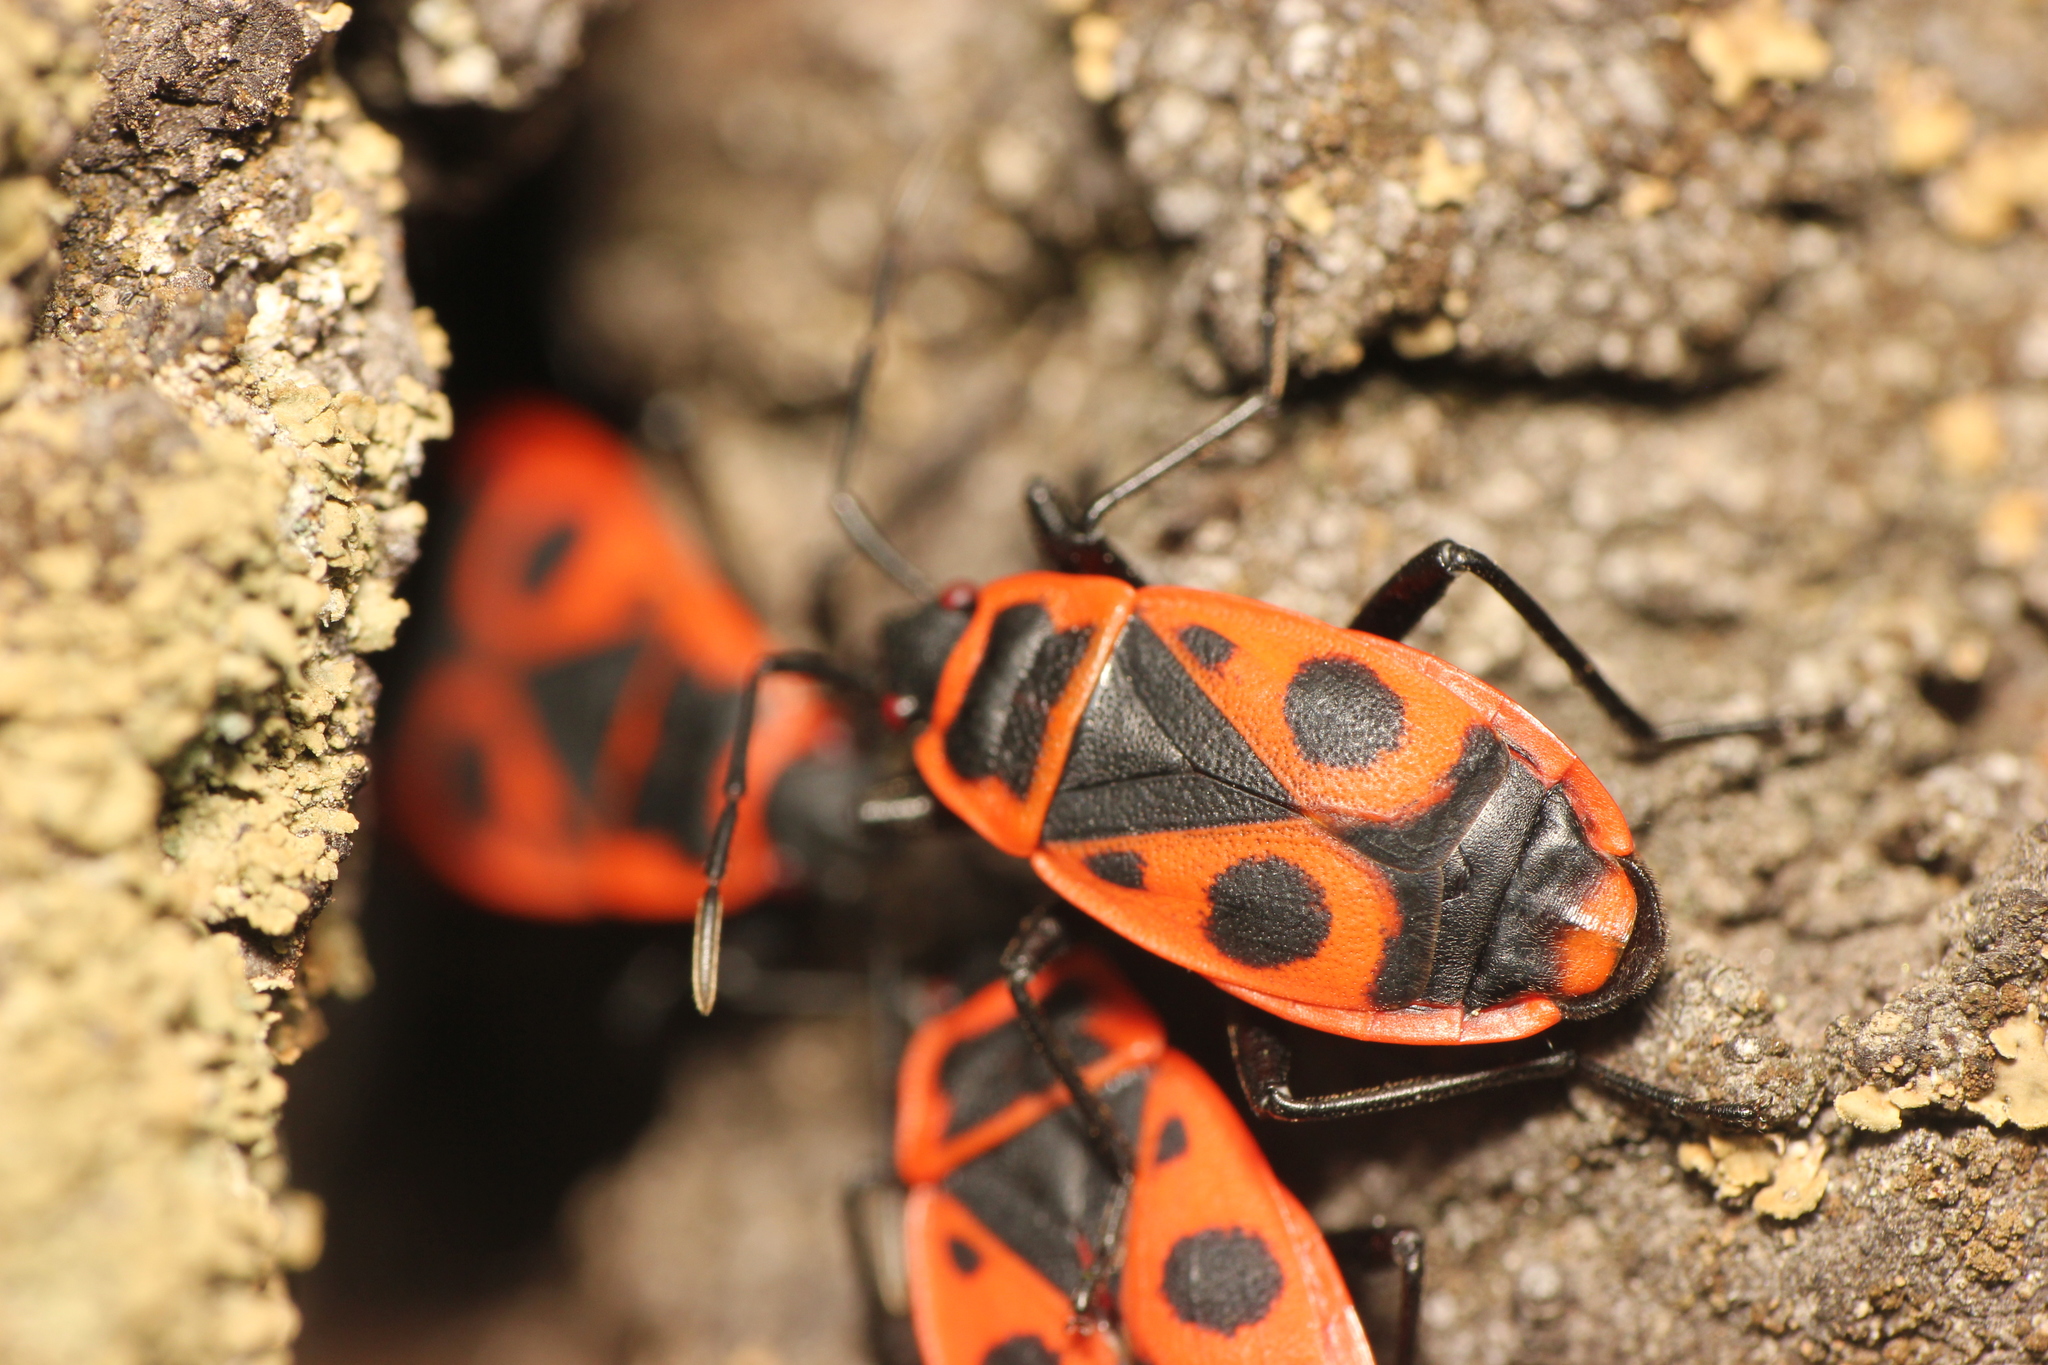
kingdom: Animalia
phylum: Arthropoda
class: Insecta
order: Hemiptera
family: Pyrrhocoridae
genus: Pyrrhocoris
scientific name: Pyrrhocoris apterus
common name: Firebug
